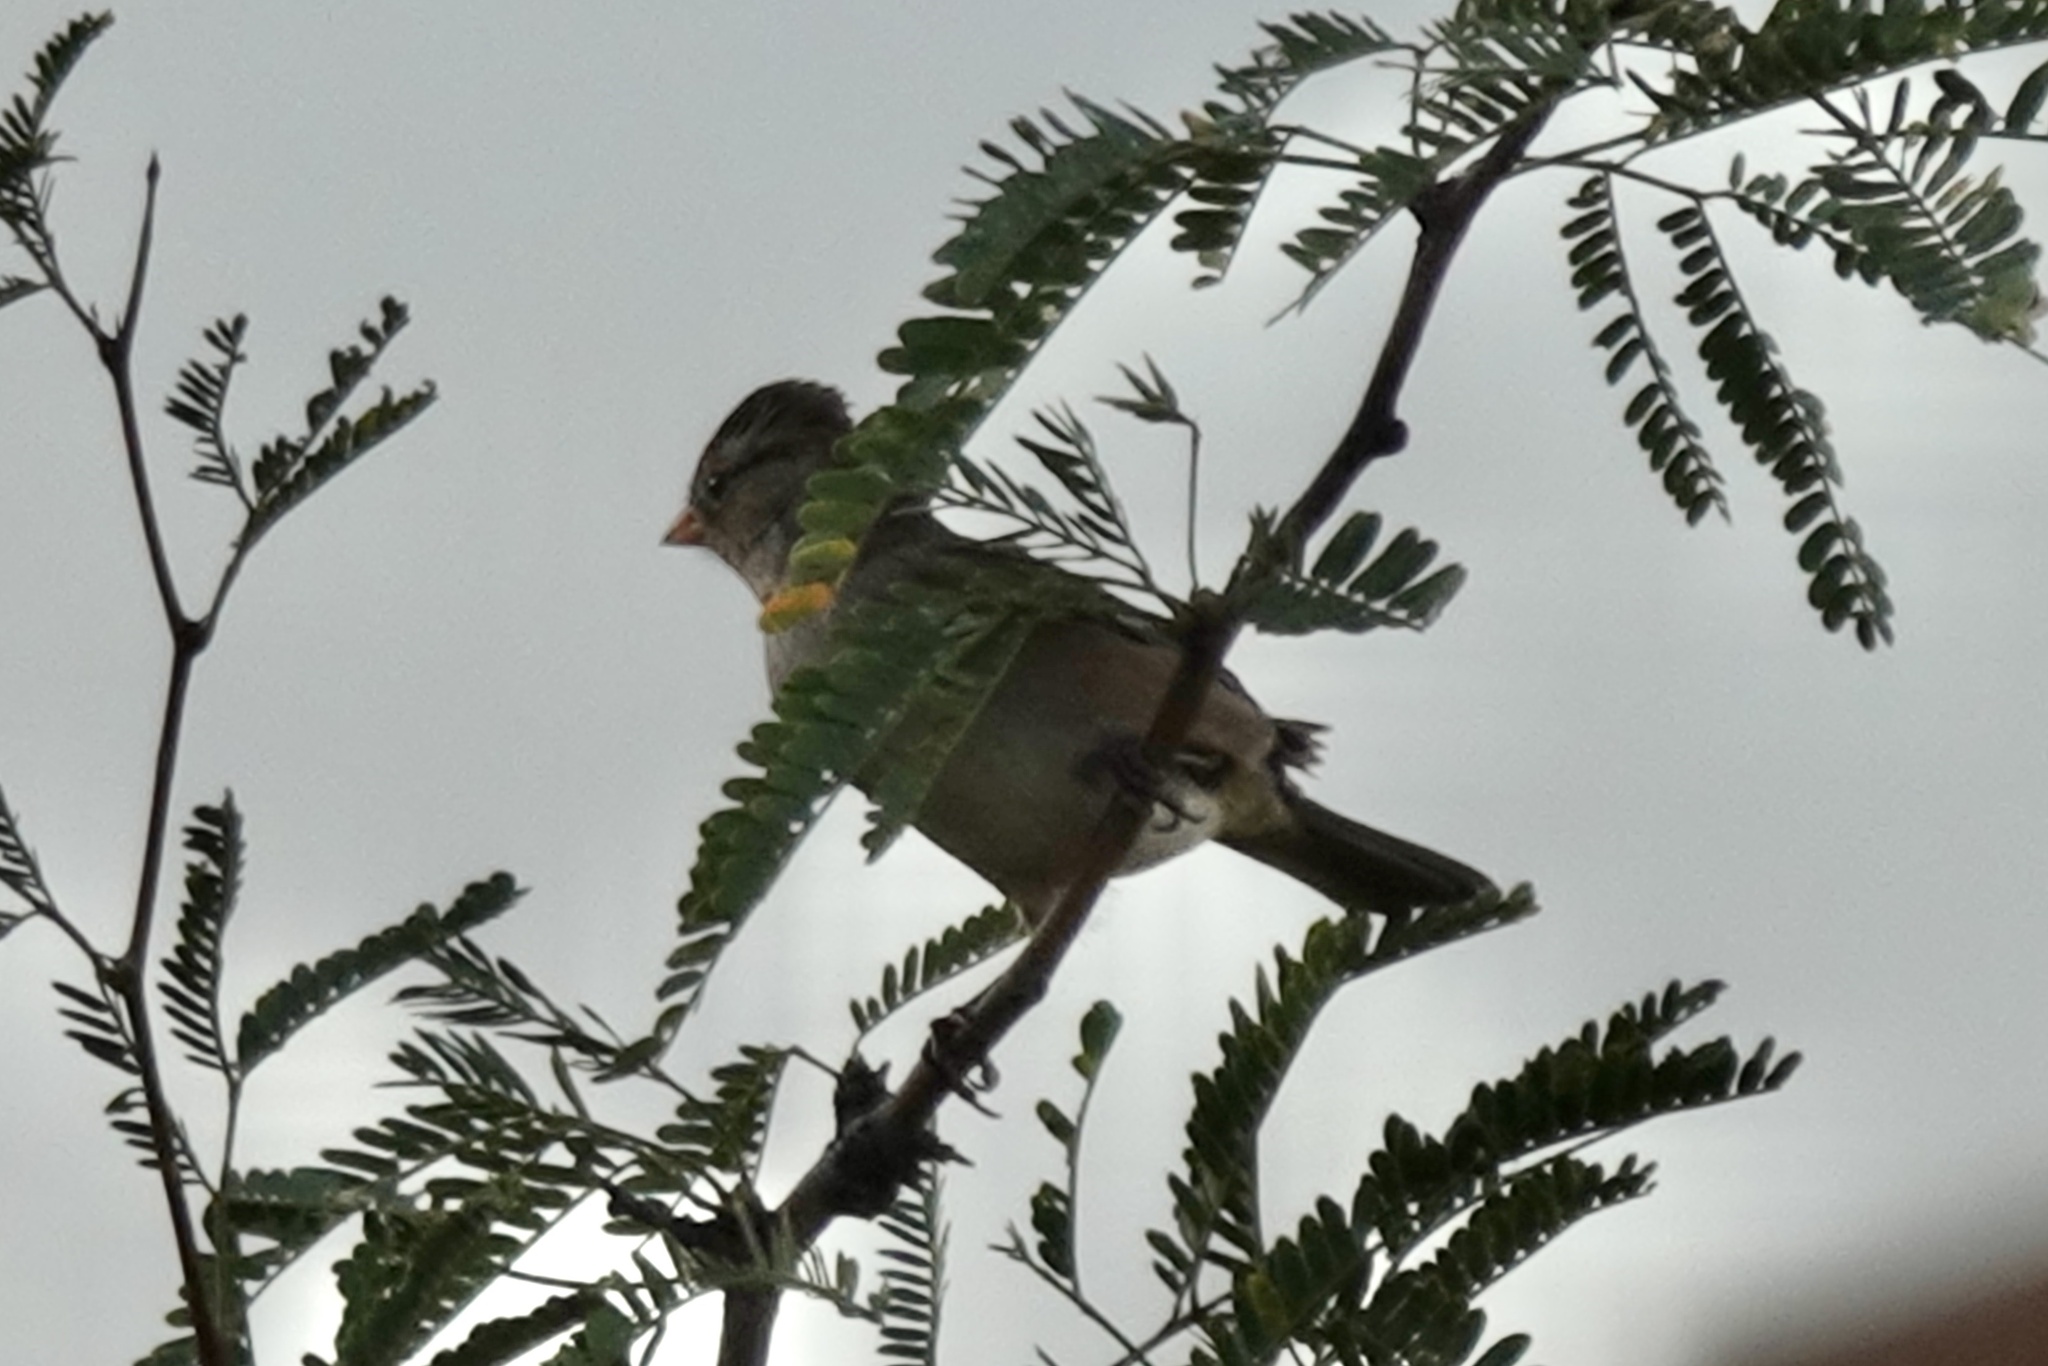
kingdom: Animalia
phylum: Chordata
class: Aves
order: Passeriformes
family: Passerellidae
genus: Zonotrichia
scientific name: Zonotrichia leucophrys
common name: White-crowned sparrow
